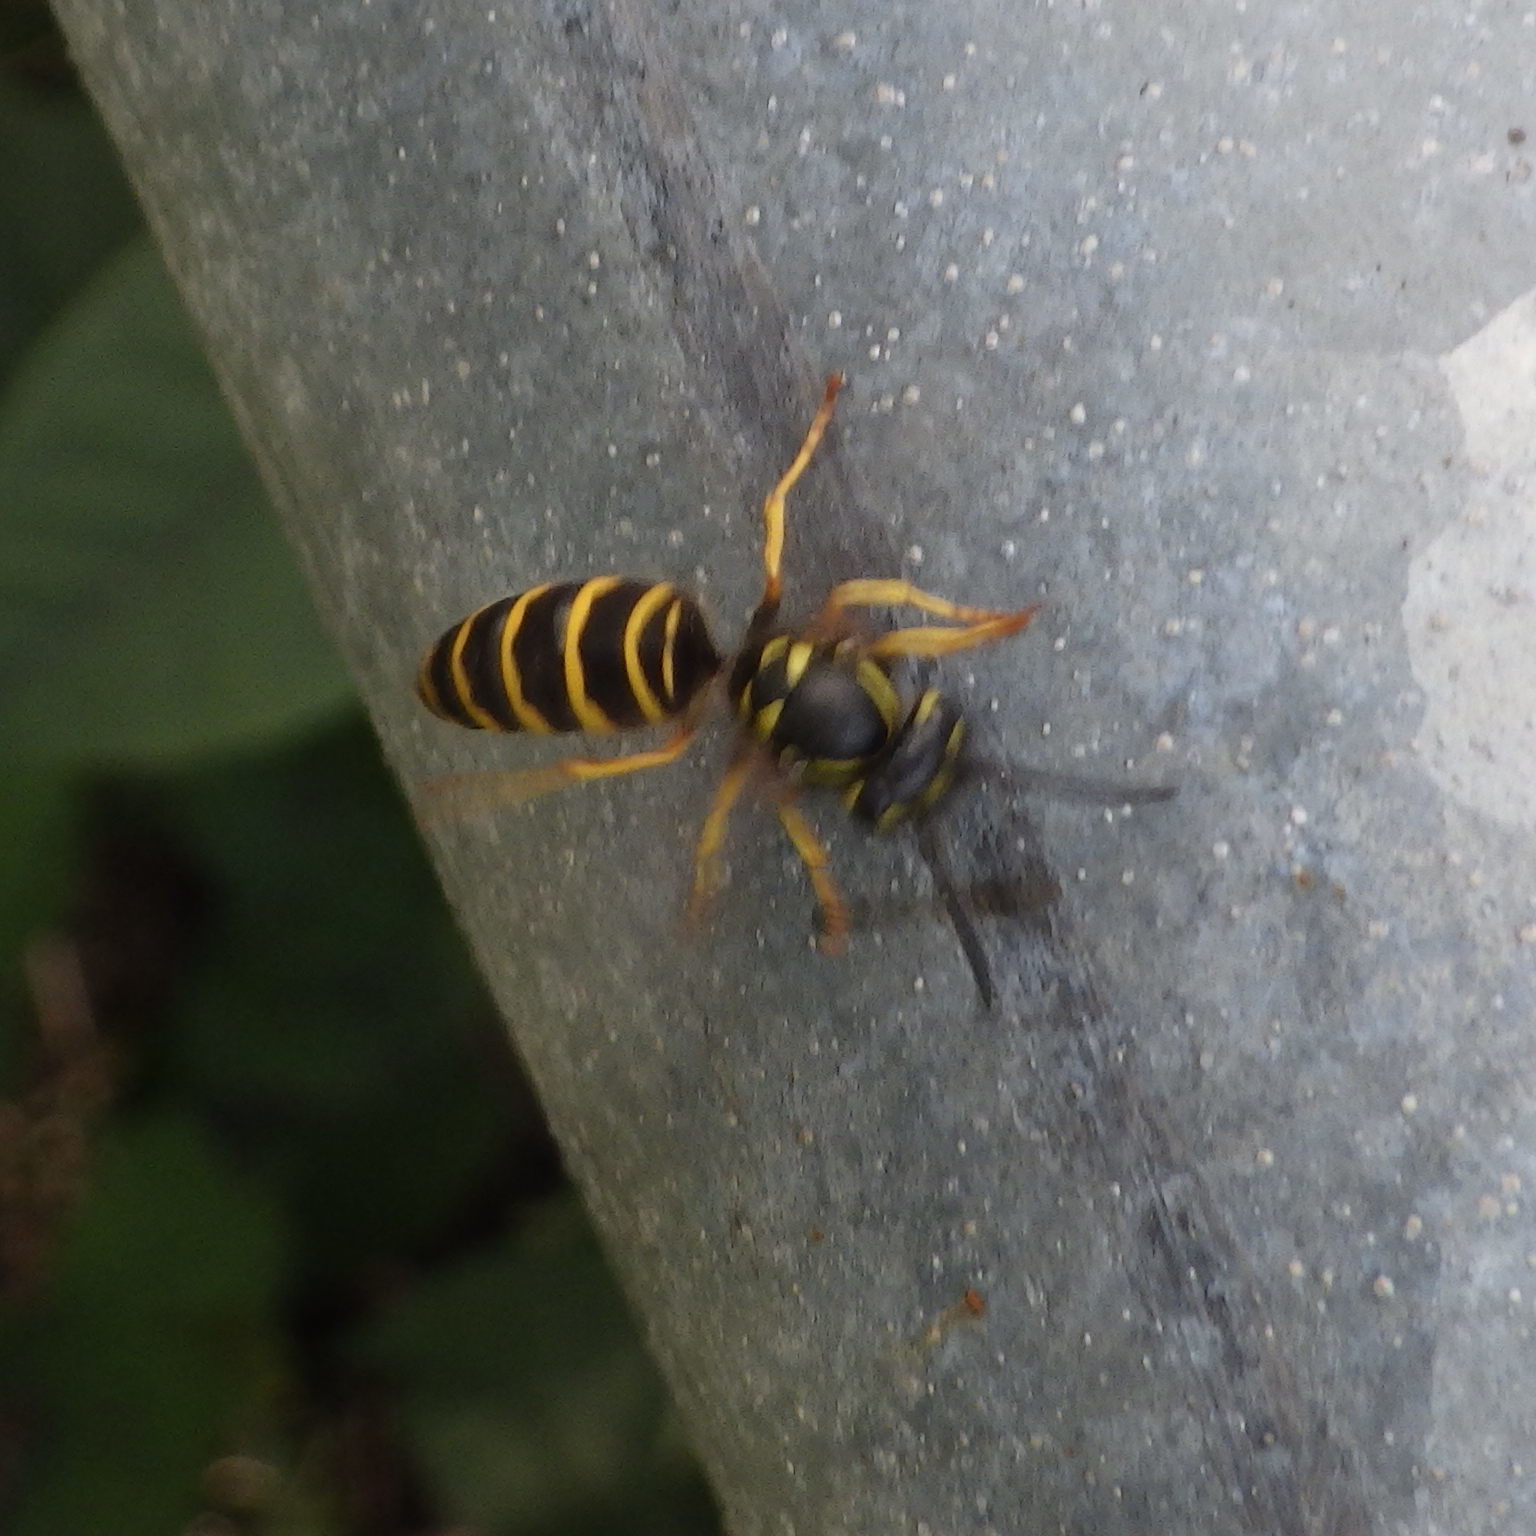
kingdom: Animalia
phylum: Arthropoda
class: Insecta
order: Hymenoptera
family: Vespidae
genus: Vespula
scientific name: Vespula maculifrons
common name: Eastern yellowjacket
